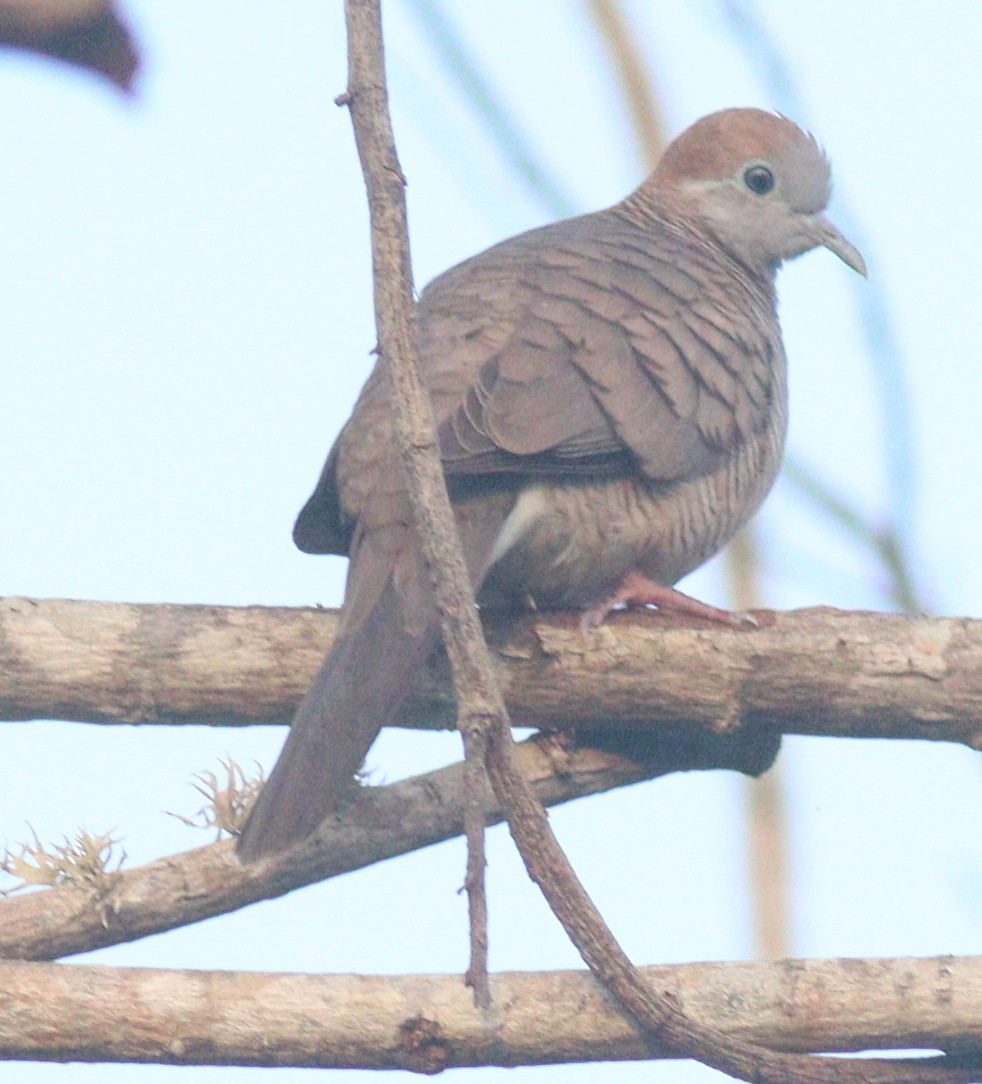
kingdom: Animalia
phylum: Chordata
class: Aves
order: Columbiformes
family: Columbidae
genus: Geopelia
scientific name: Geopelia striata
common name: Zebra dove
